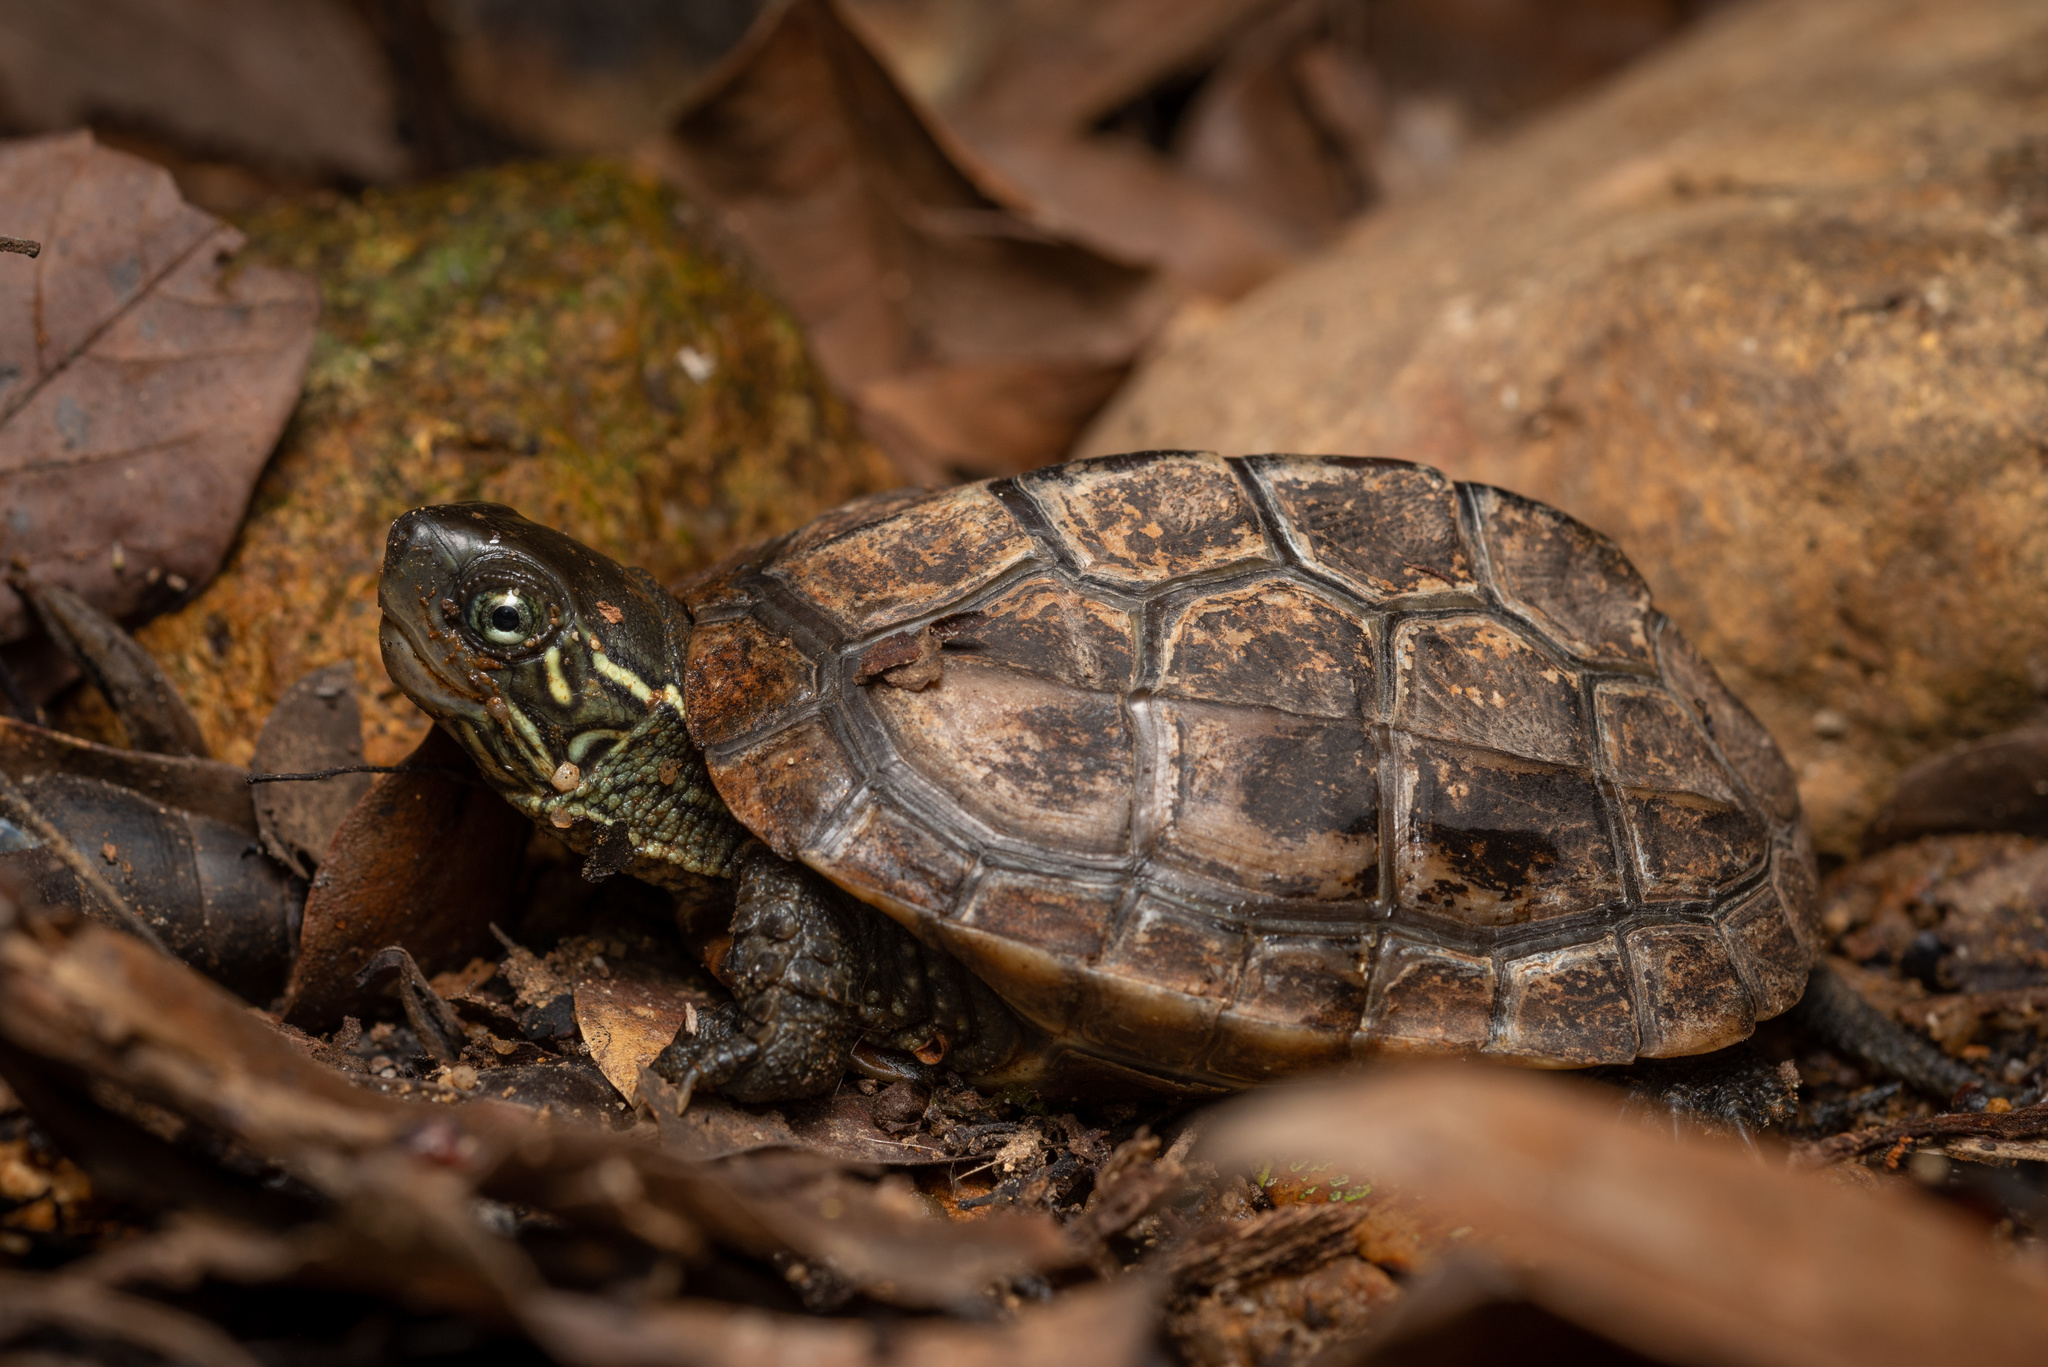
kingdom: Animalia
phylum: Chordata
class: Testudines
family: Geoemydidae
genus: Mauremys
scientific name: Mauremys reevesii
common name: Chinese pond turtle
